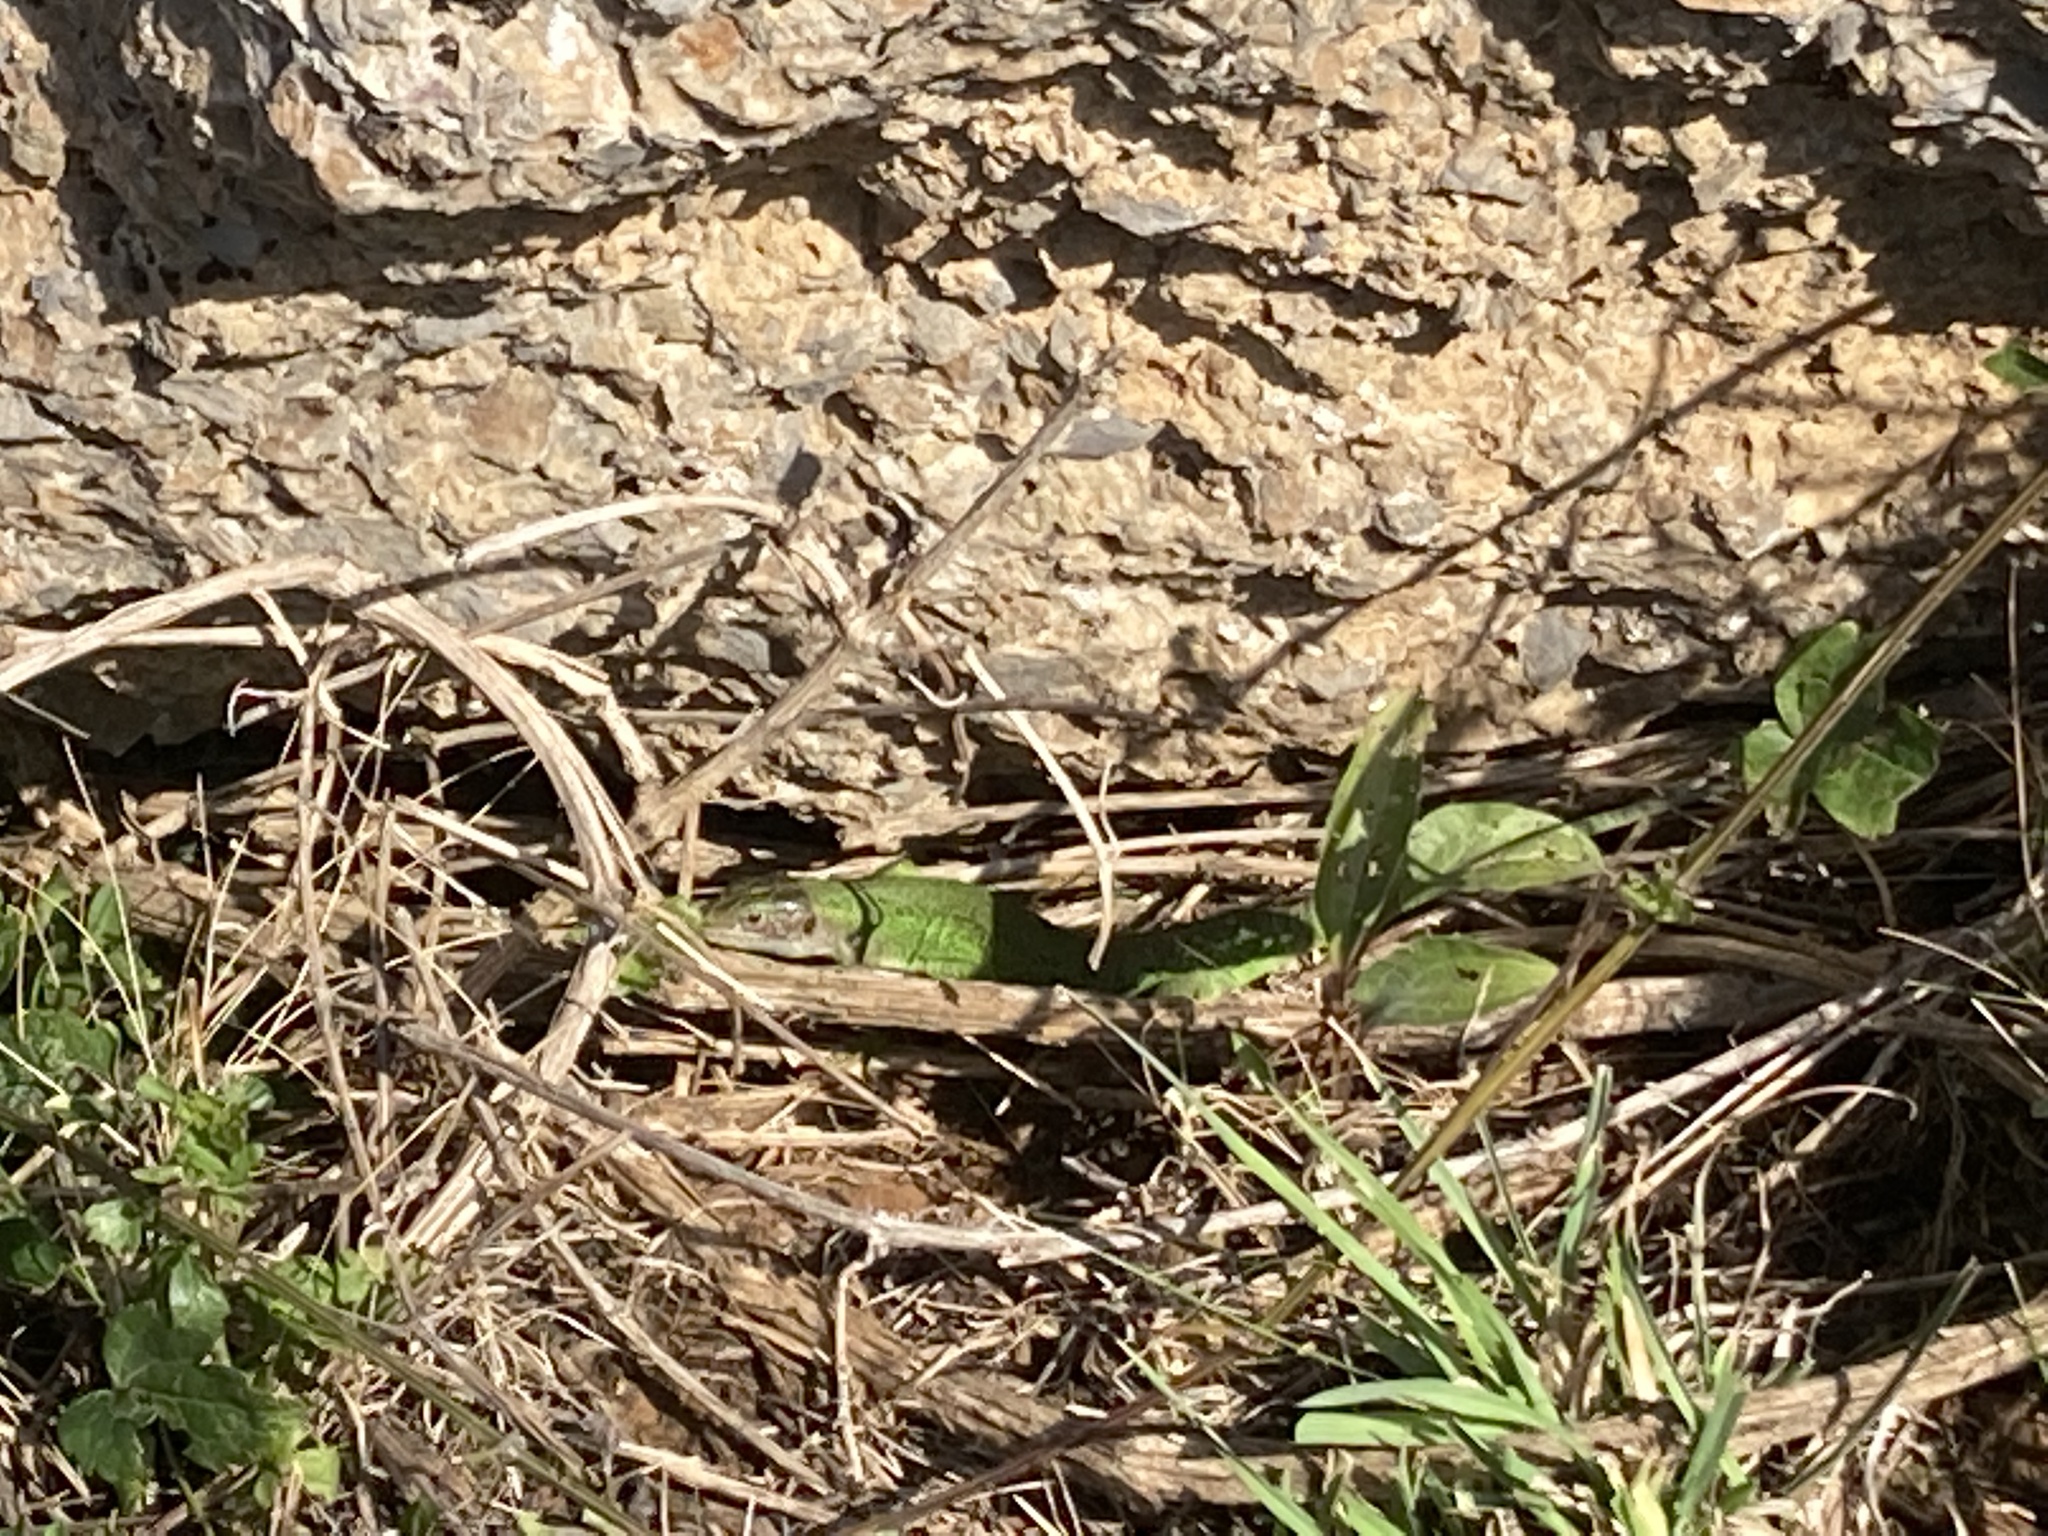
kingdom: Animalia
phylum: Chordata
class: Squamata
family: Lacertidae
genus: Lacerta
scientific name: Lacerta bilineata
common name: Western green lizard
